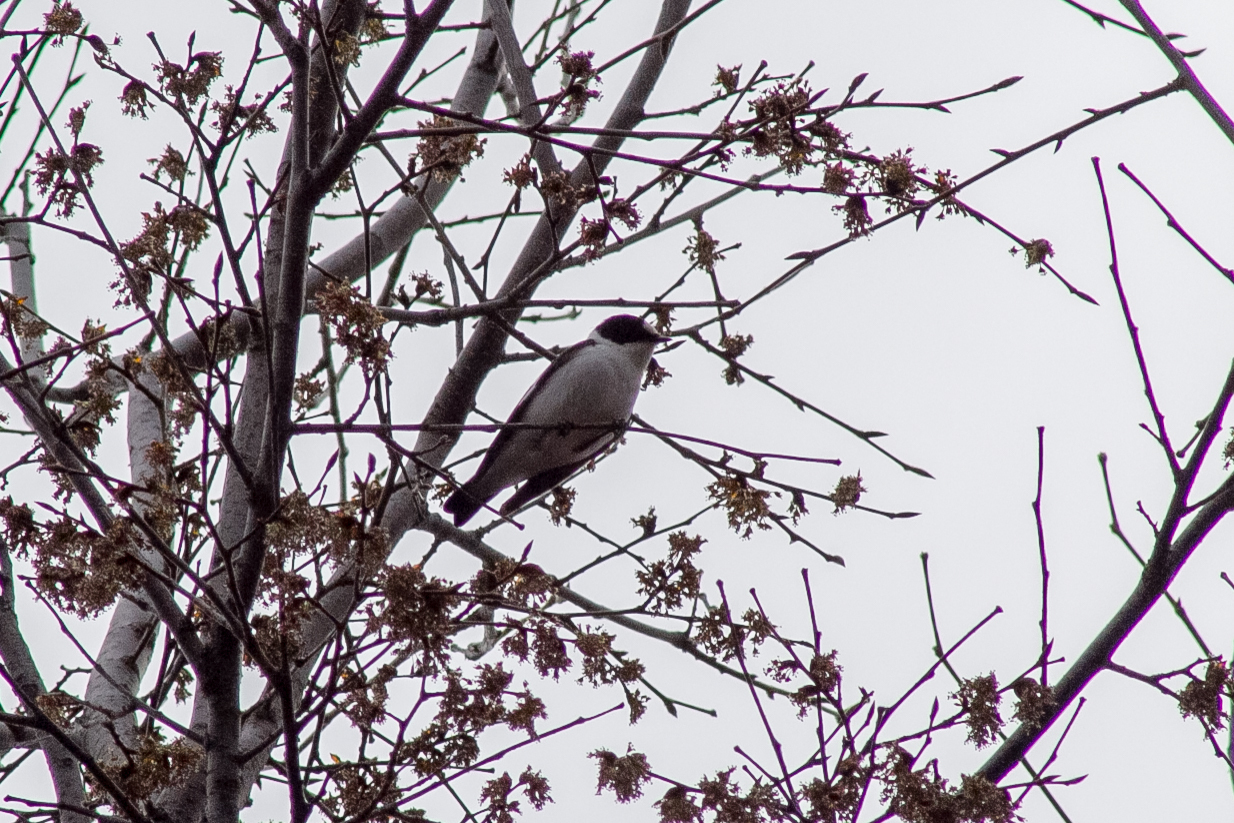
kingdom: Animalia
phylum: Chordata
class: Aves
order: Passeriformes
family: Muscicapidae
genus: Ficedula
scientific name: Ficedula albicollis
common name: Collared flycatcher
